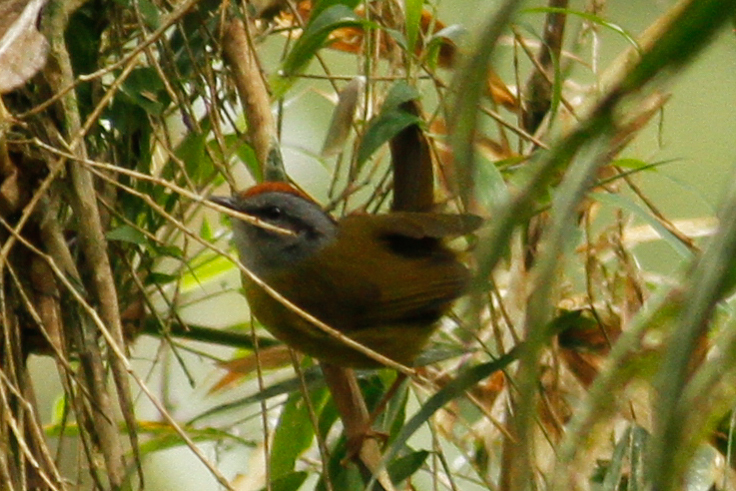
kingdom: Animalia
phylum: Chordata
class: Aves
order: Passeriformes
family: Parulidae
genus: Myiothlypis
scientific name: Myiothlypis coronata
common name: Russet-crowned warbler
